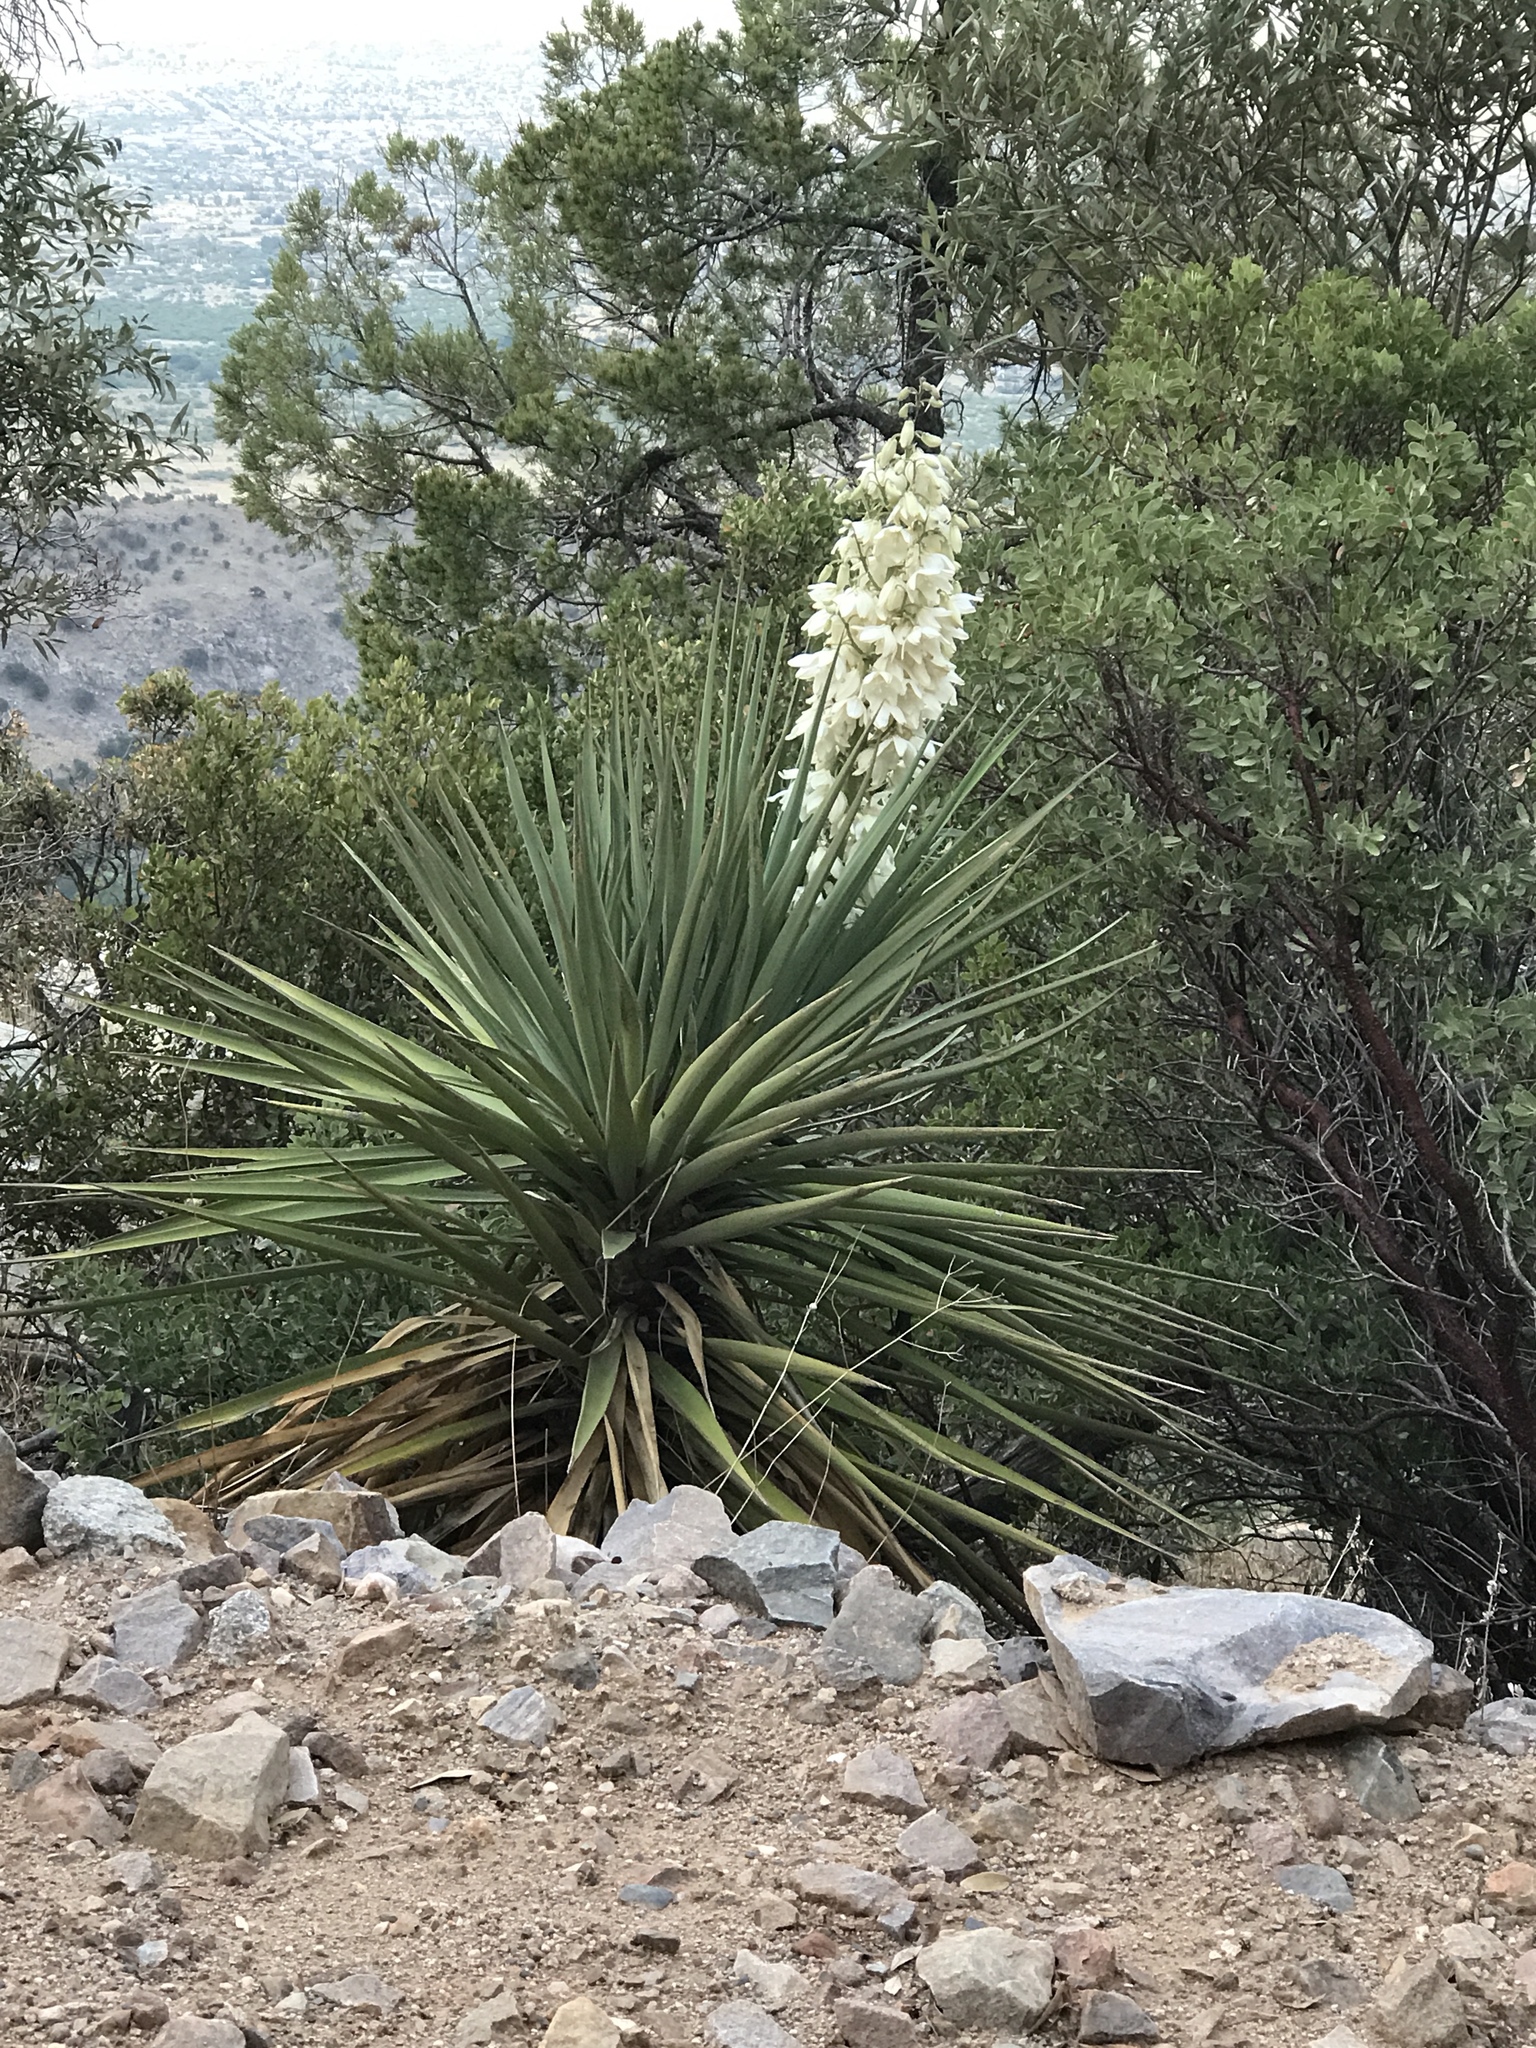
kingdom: Plantae
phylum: Tracheophyta
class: Liliopsida
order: Asparagales
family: Asparagaceae
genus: Yucca
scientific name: Yucca schottii
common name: Hoary yucca
